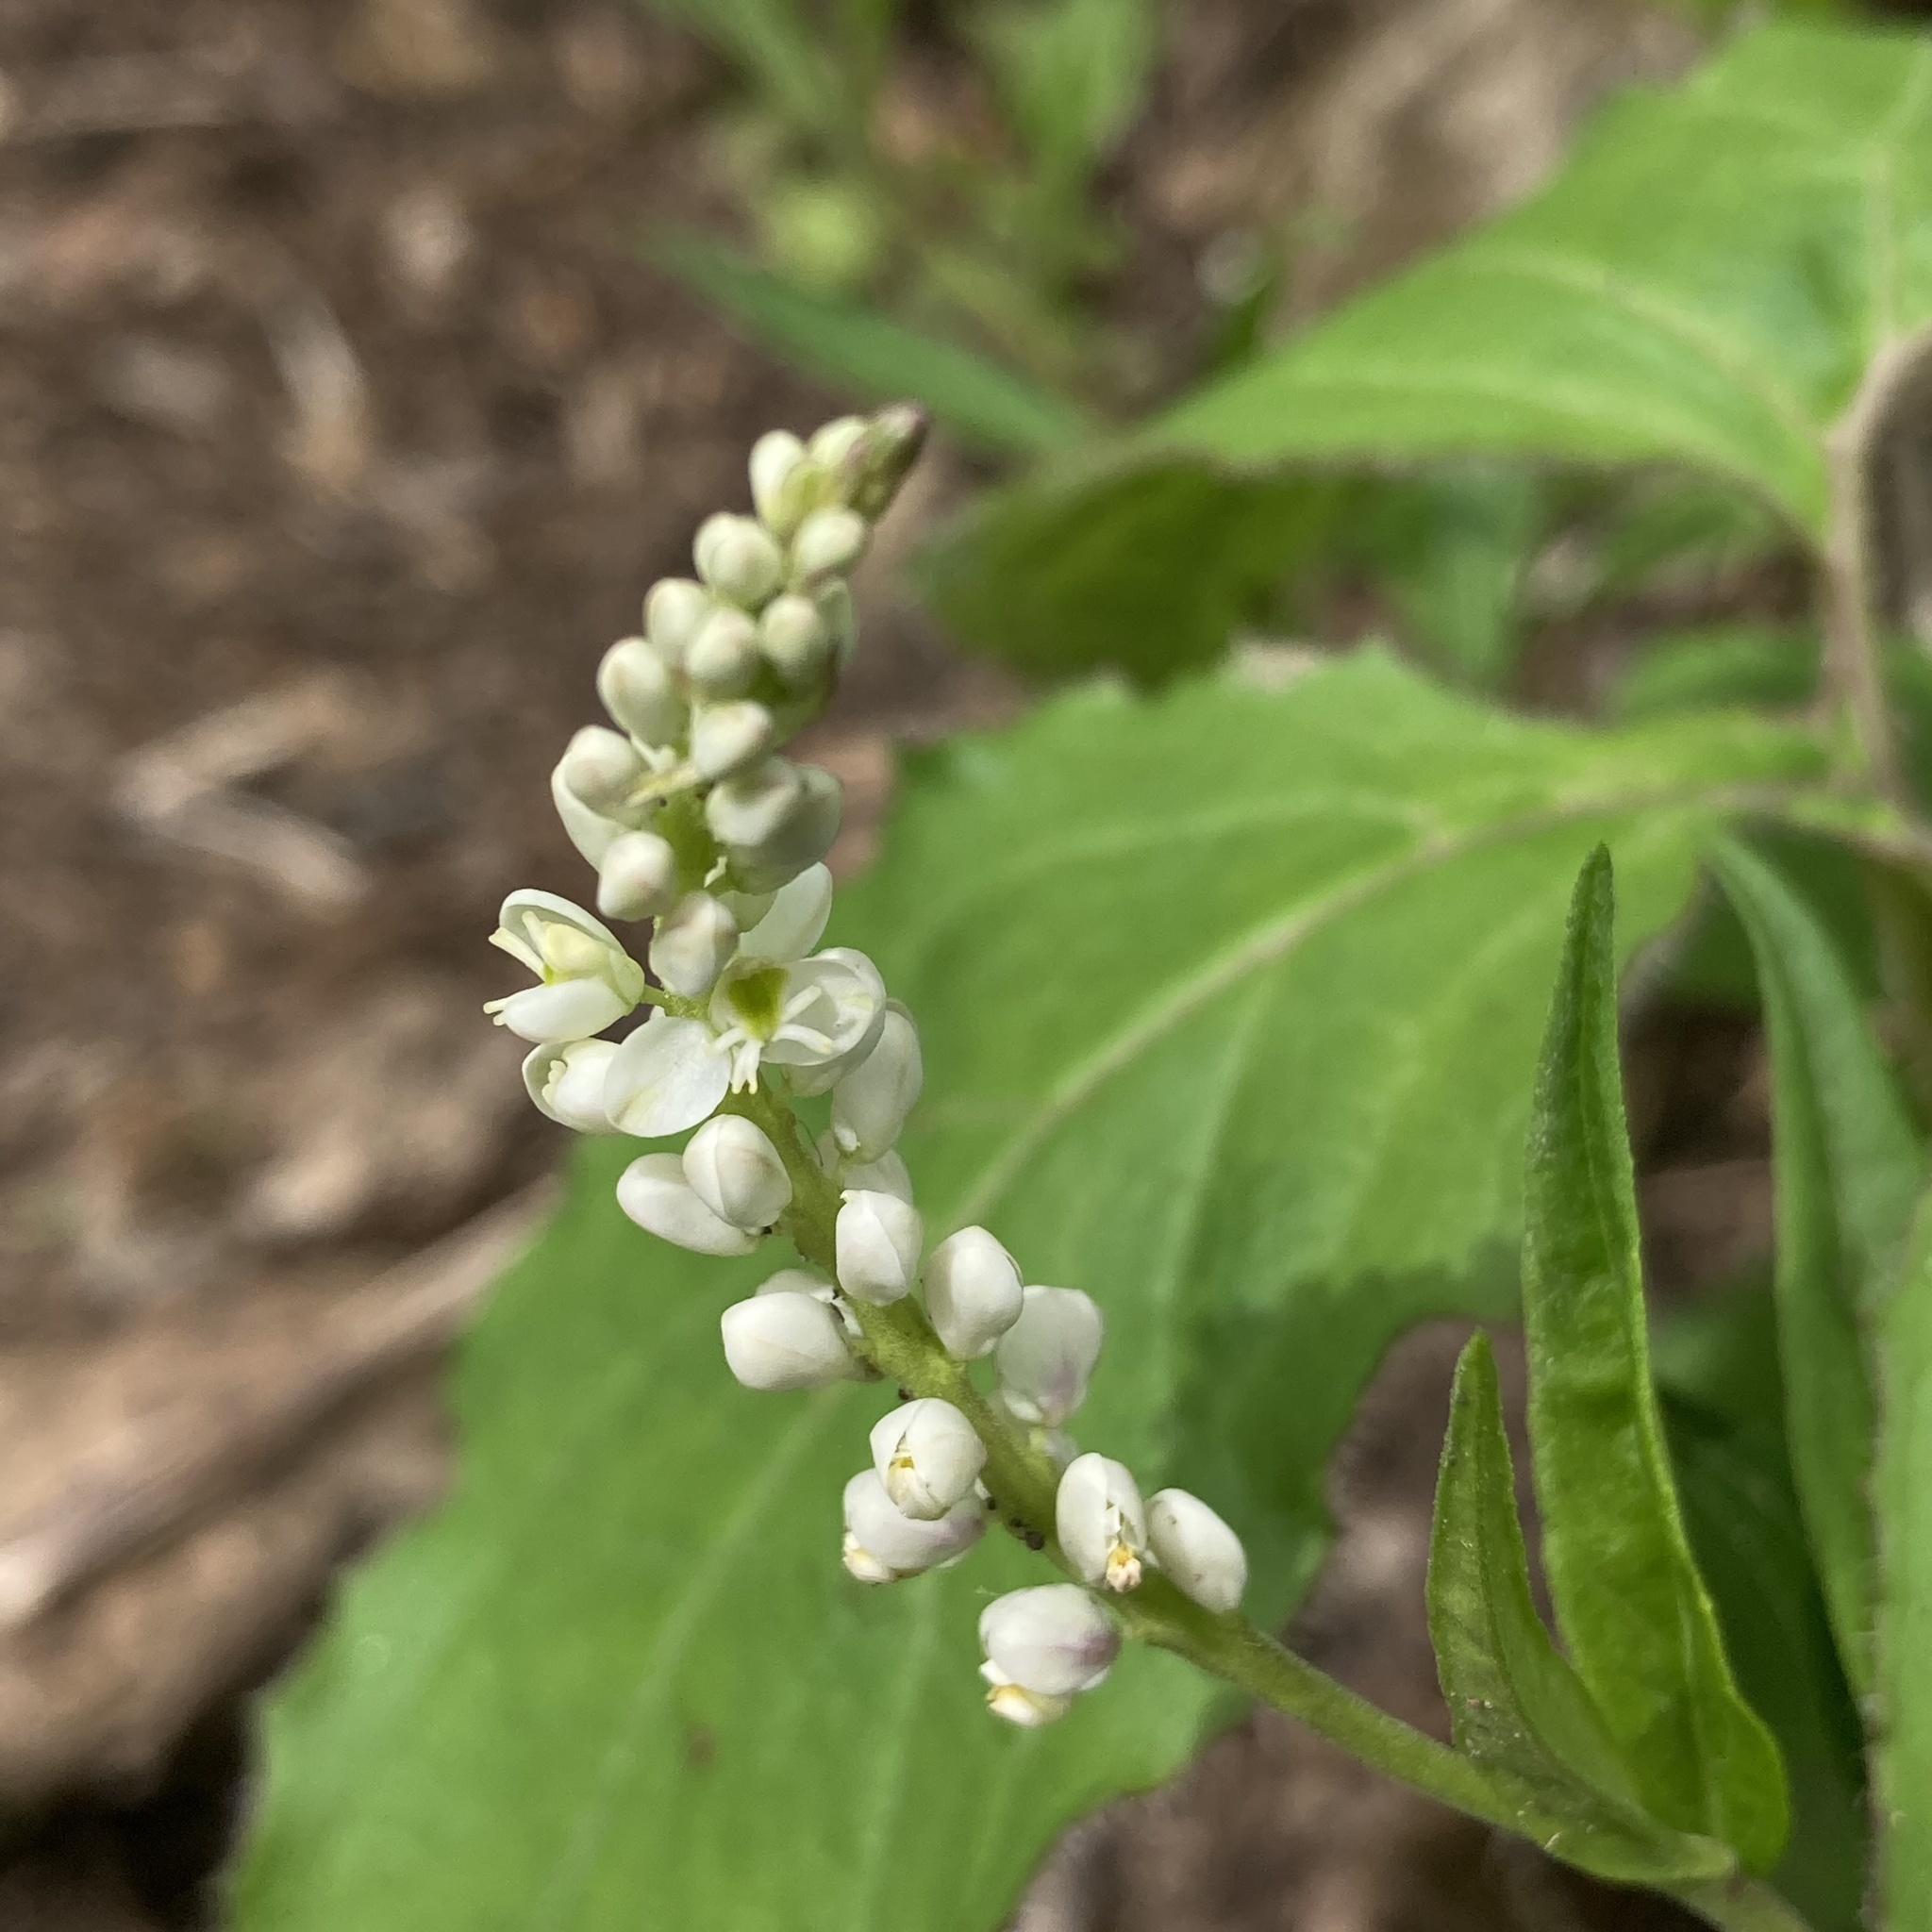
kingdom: Plantae
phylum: Tracheophyta
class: Magnoliopsida
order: Fabales
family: Polygalaceae
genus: Polygala
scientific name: Polygala senega
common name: Seneca snakeroot
